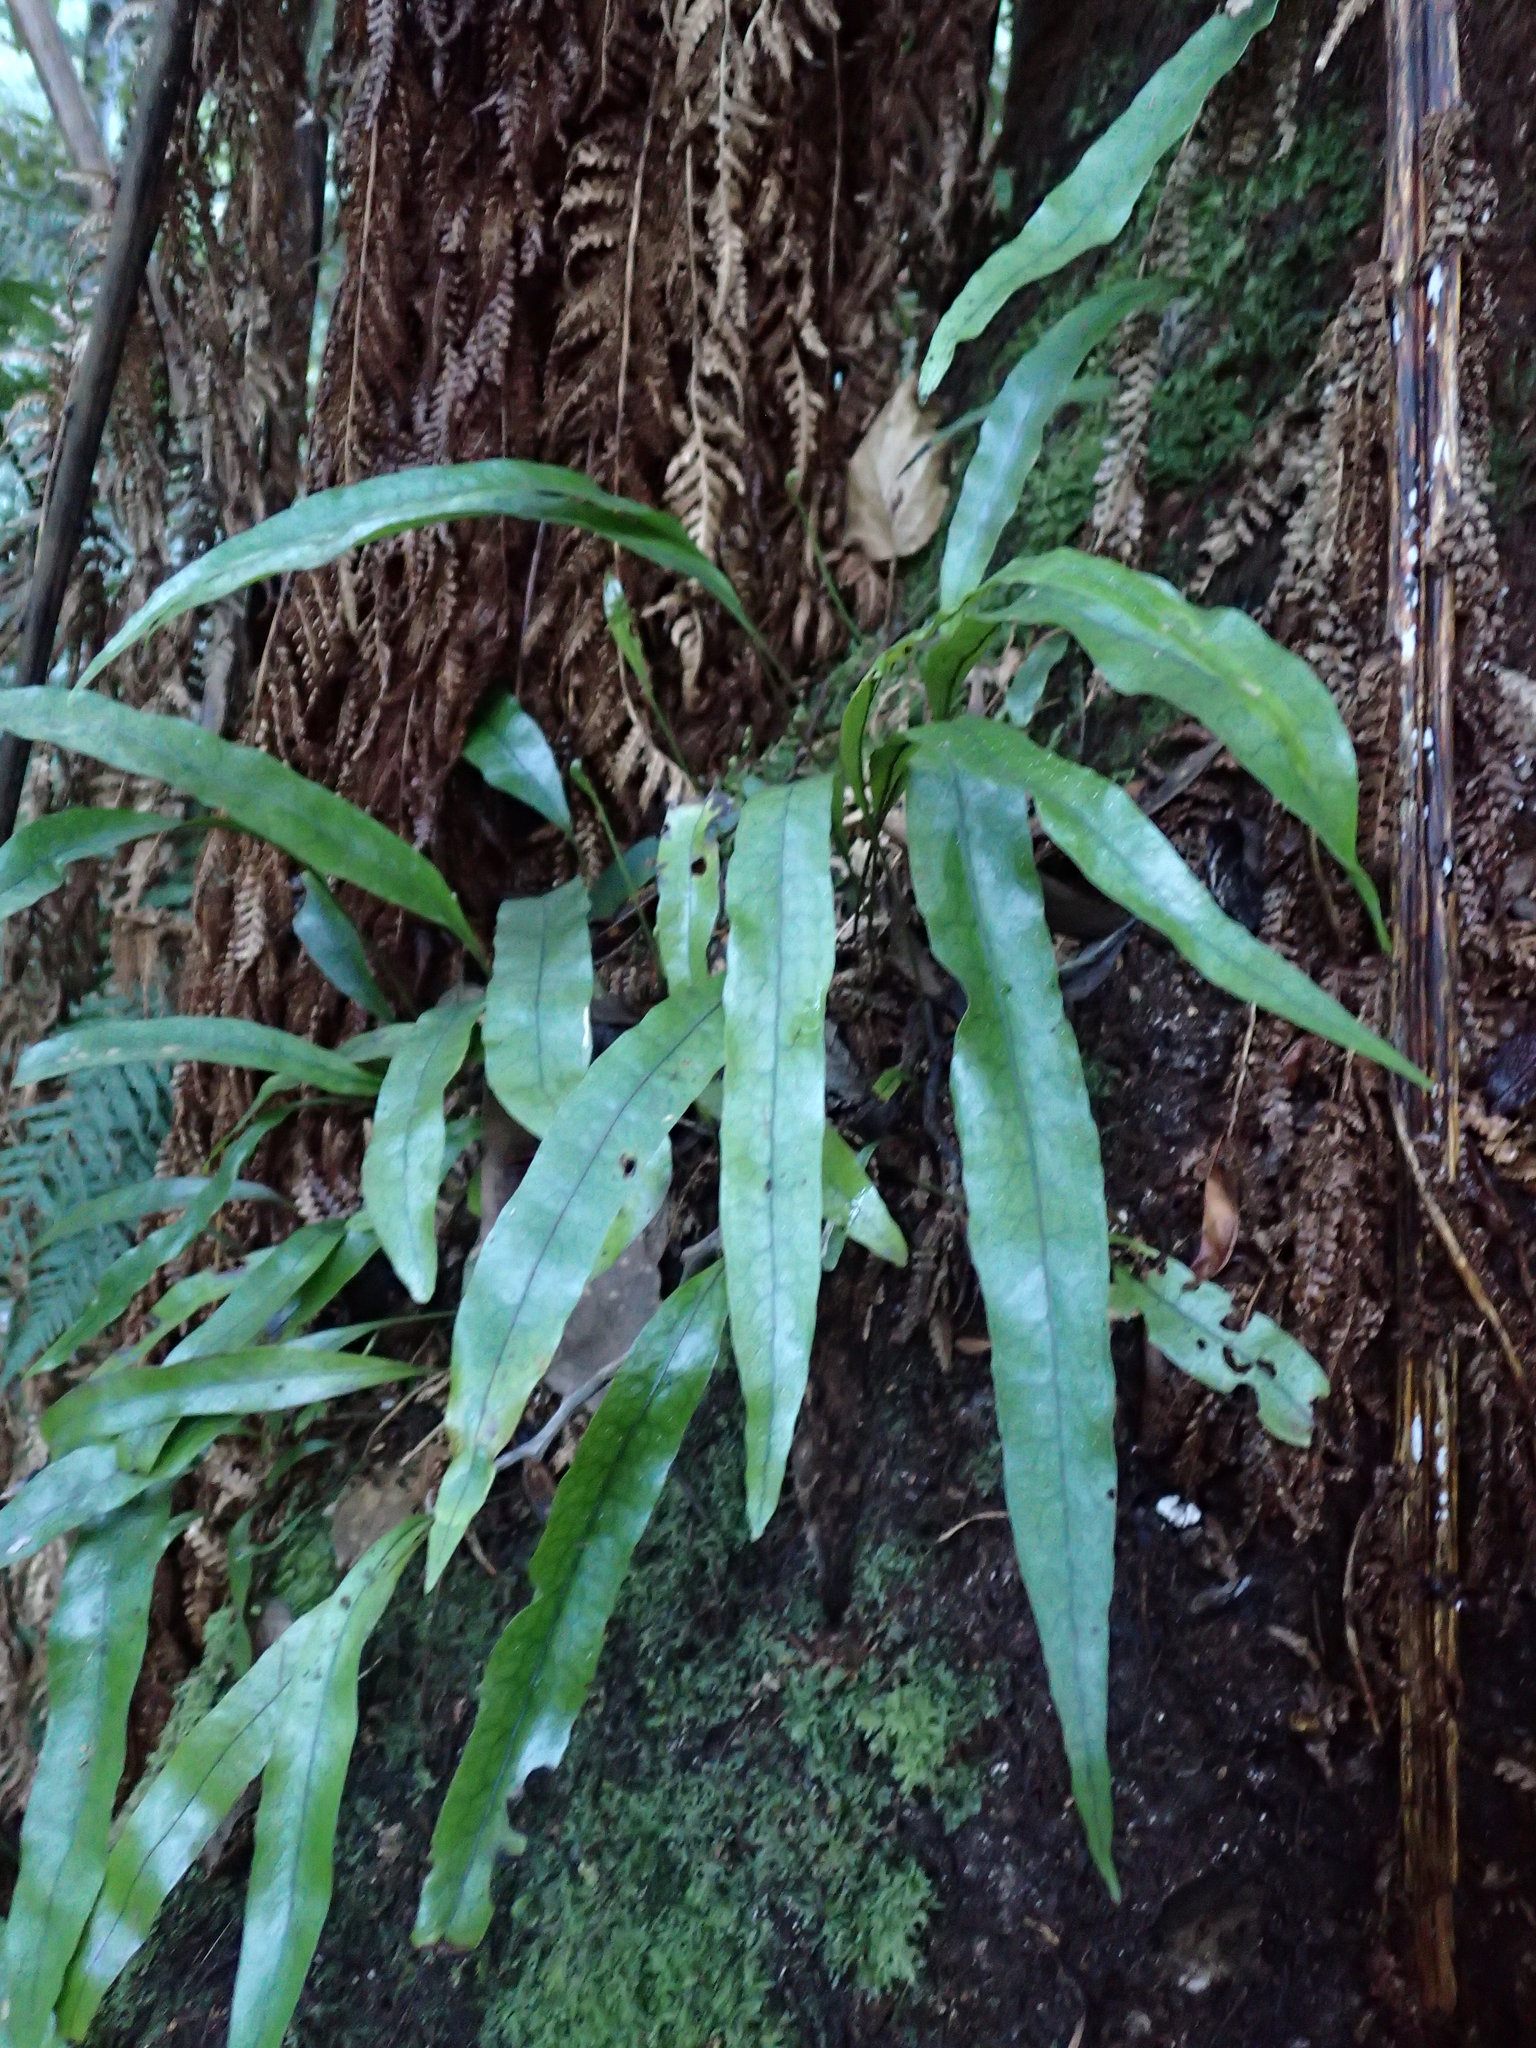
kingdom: Plantae
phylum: Tracheophyta
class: Polypodiopsida
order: Polypodiales
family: Polypodiaceae
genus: Lecanopteris
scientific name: Lecanopteris pustulata
